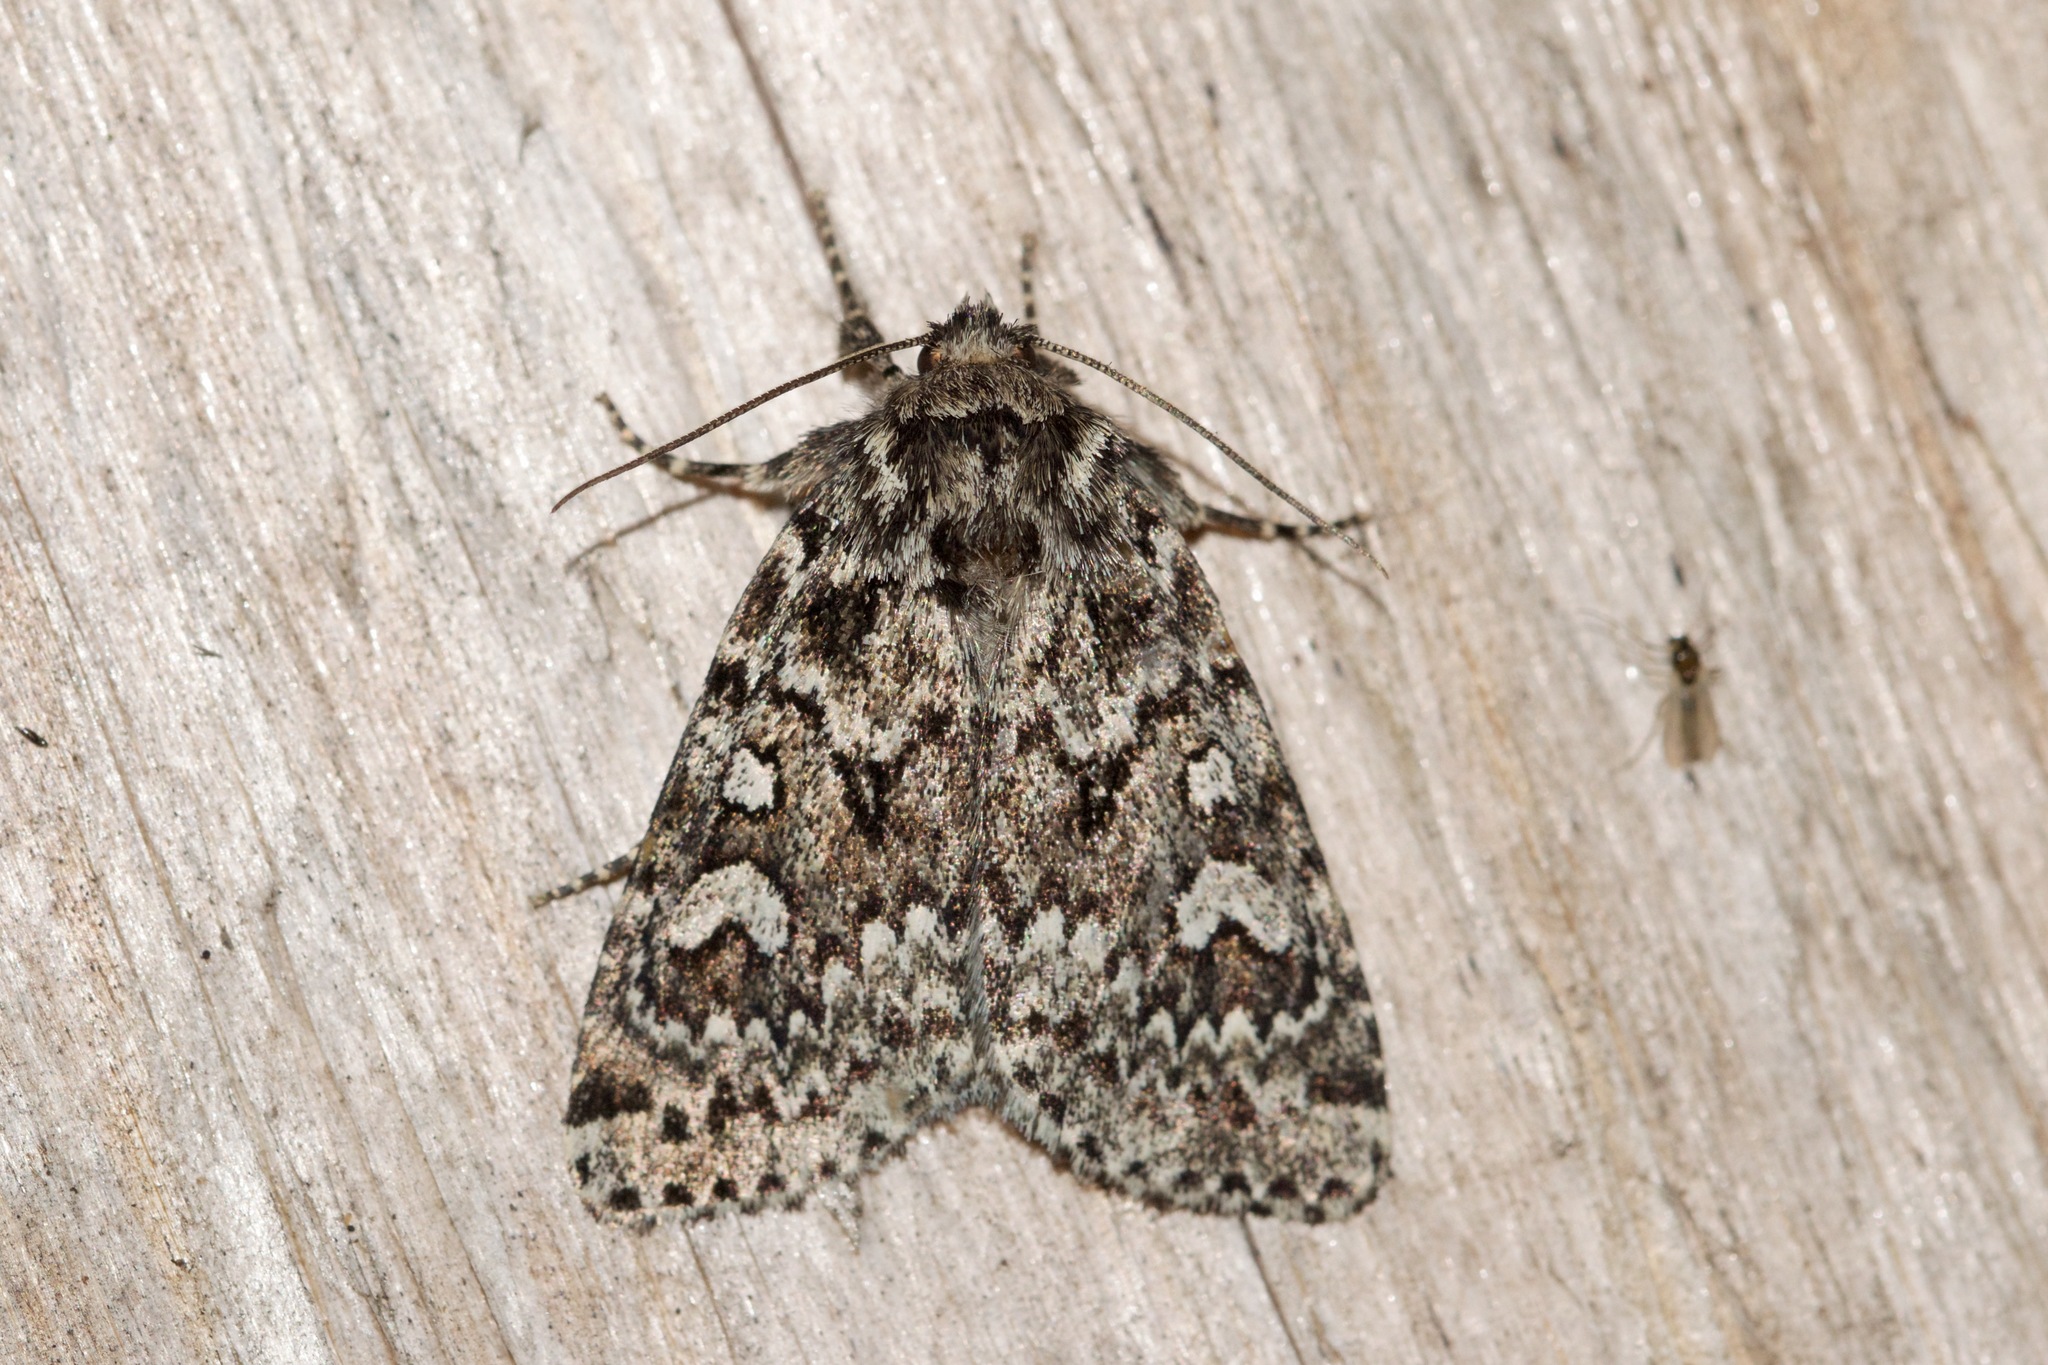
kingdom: Animalia
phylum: Arthropoda
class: Insecta
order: Lepidoptera
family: Noctuidae
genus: Xestia
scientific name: Xestia perquiritata
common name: Boomerang dart
